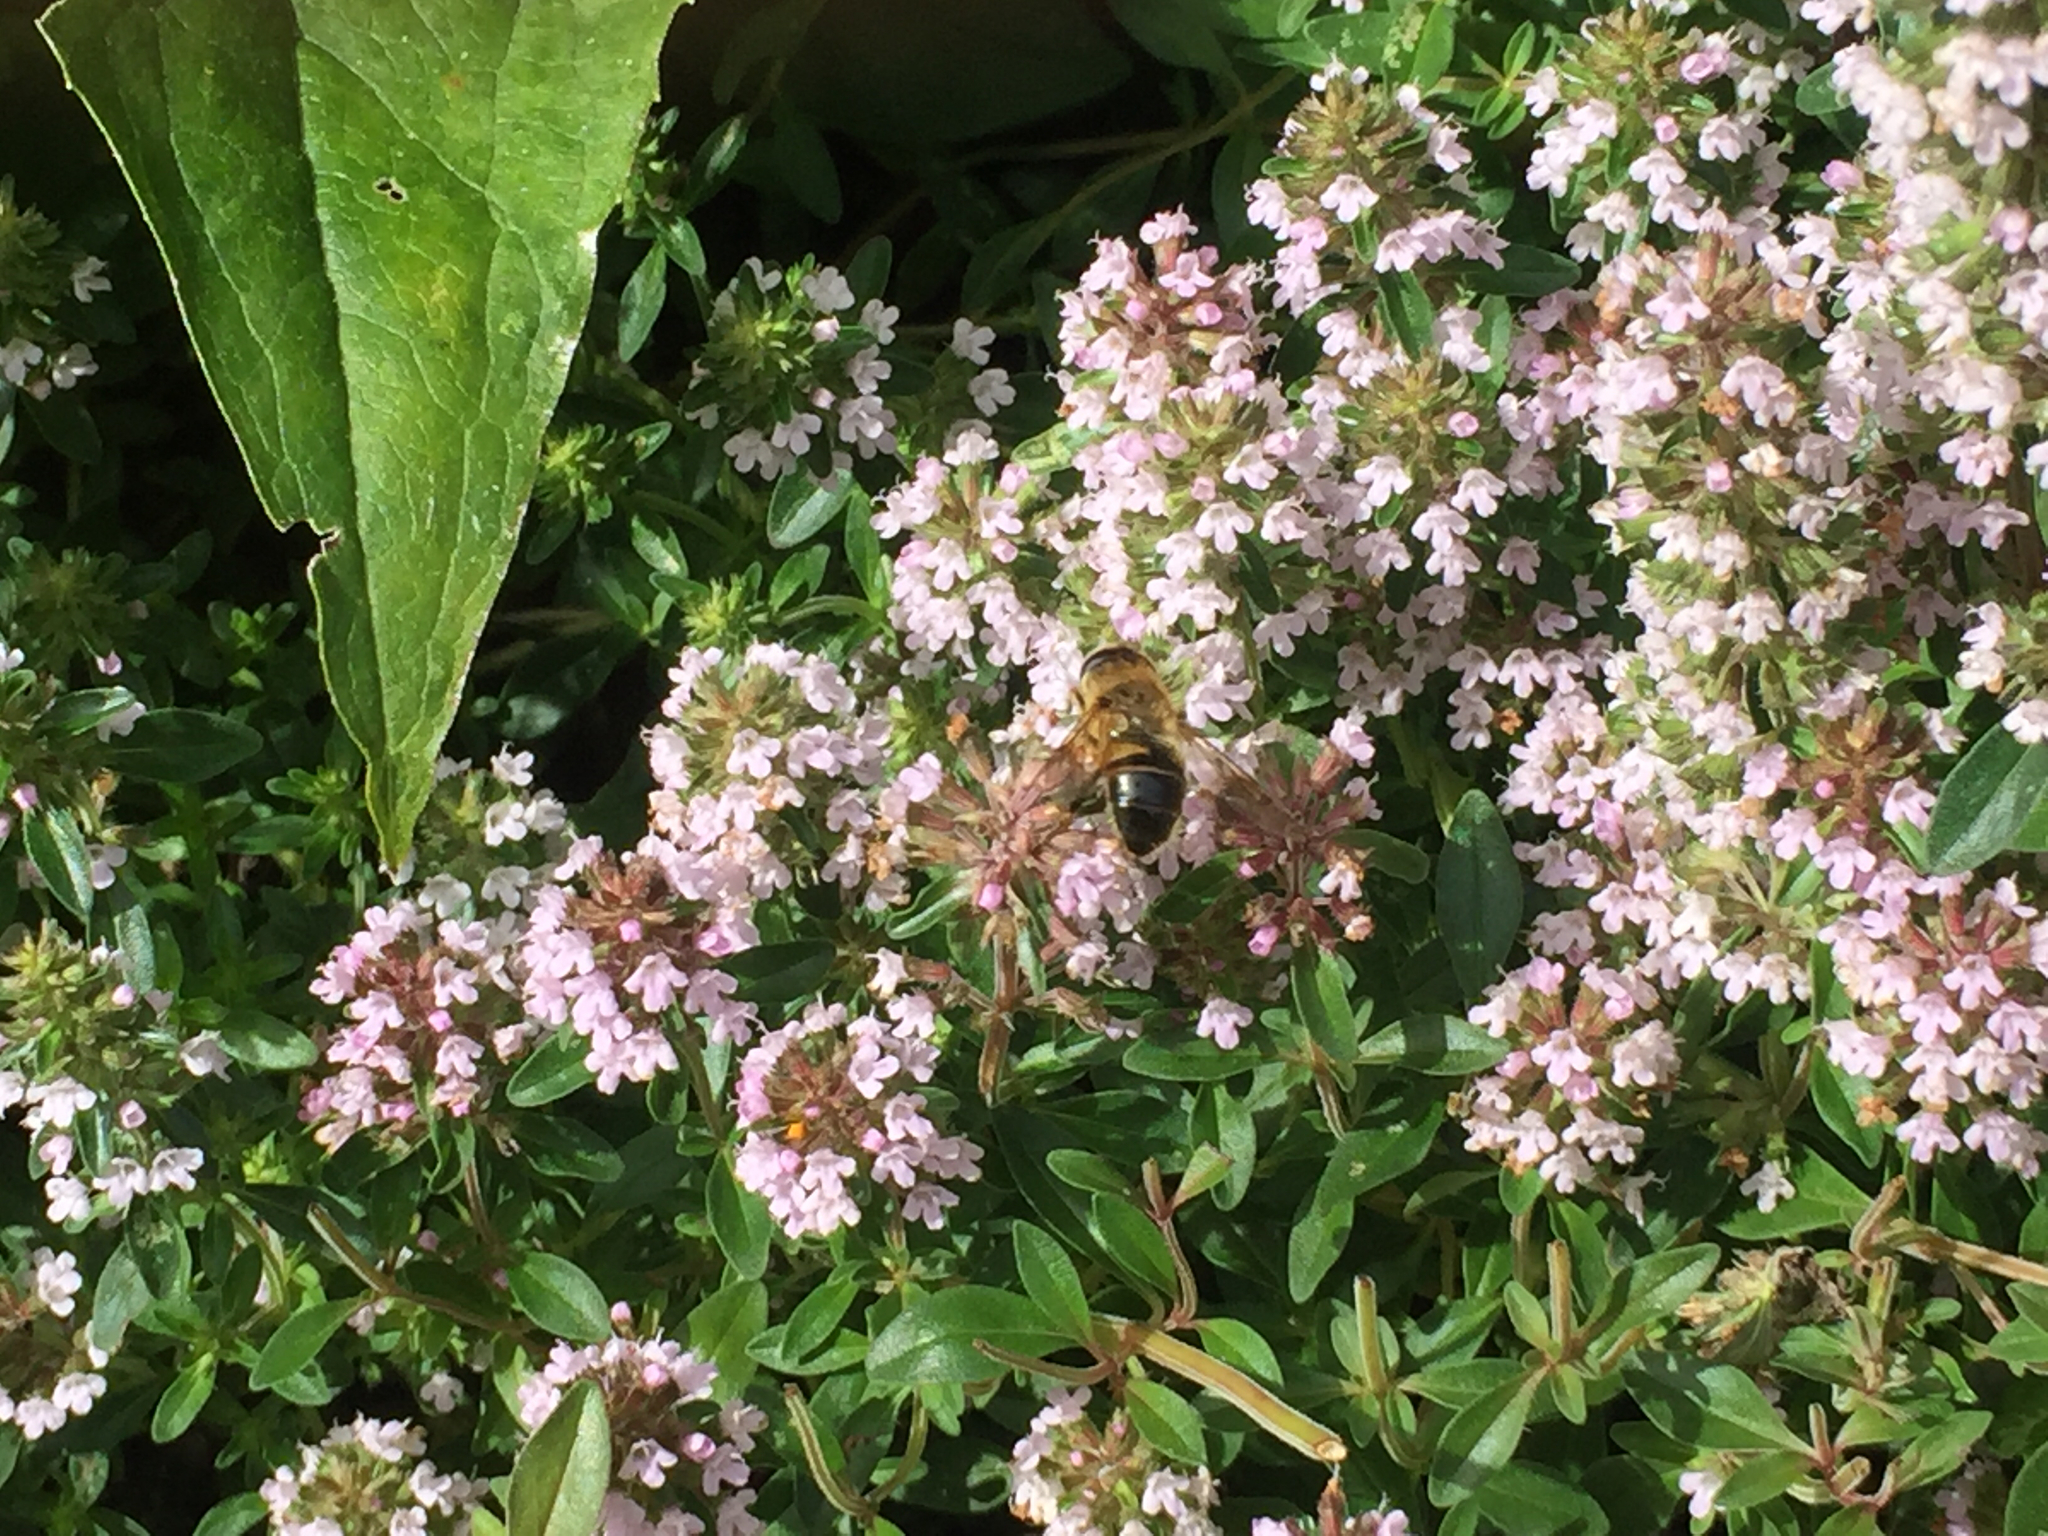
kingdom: Animalia
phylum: Arthropoda
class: Insecta
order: Diptera
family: Syrphidae
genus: Eristalis
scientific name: Eristalis tenax
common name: Drone fly
